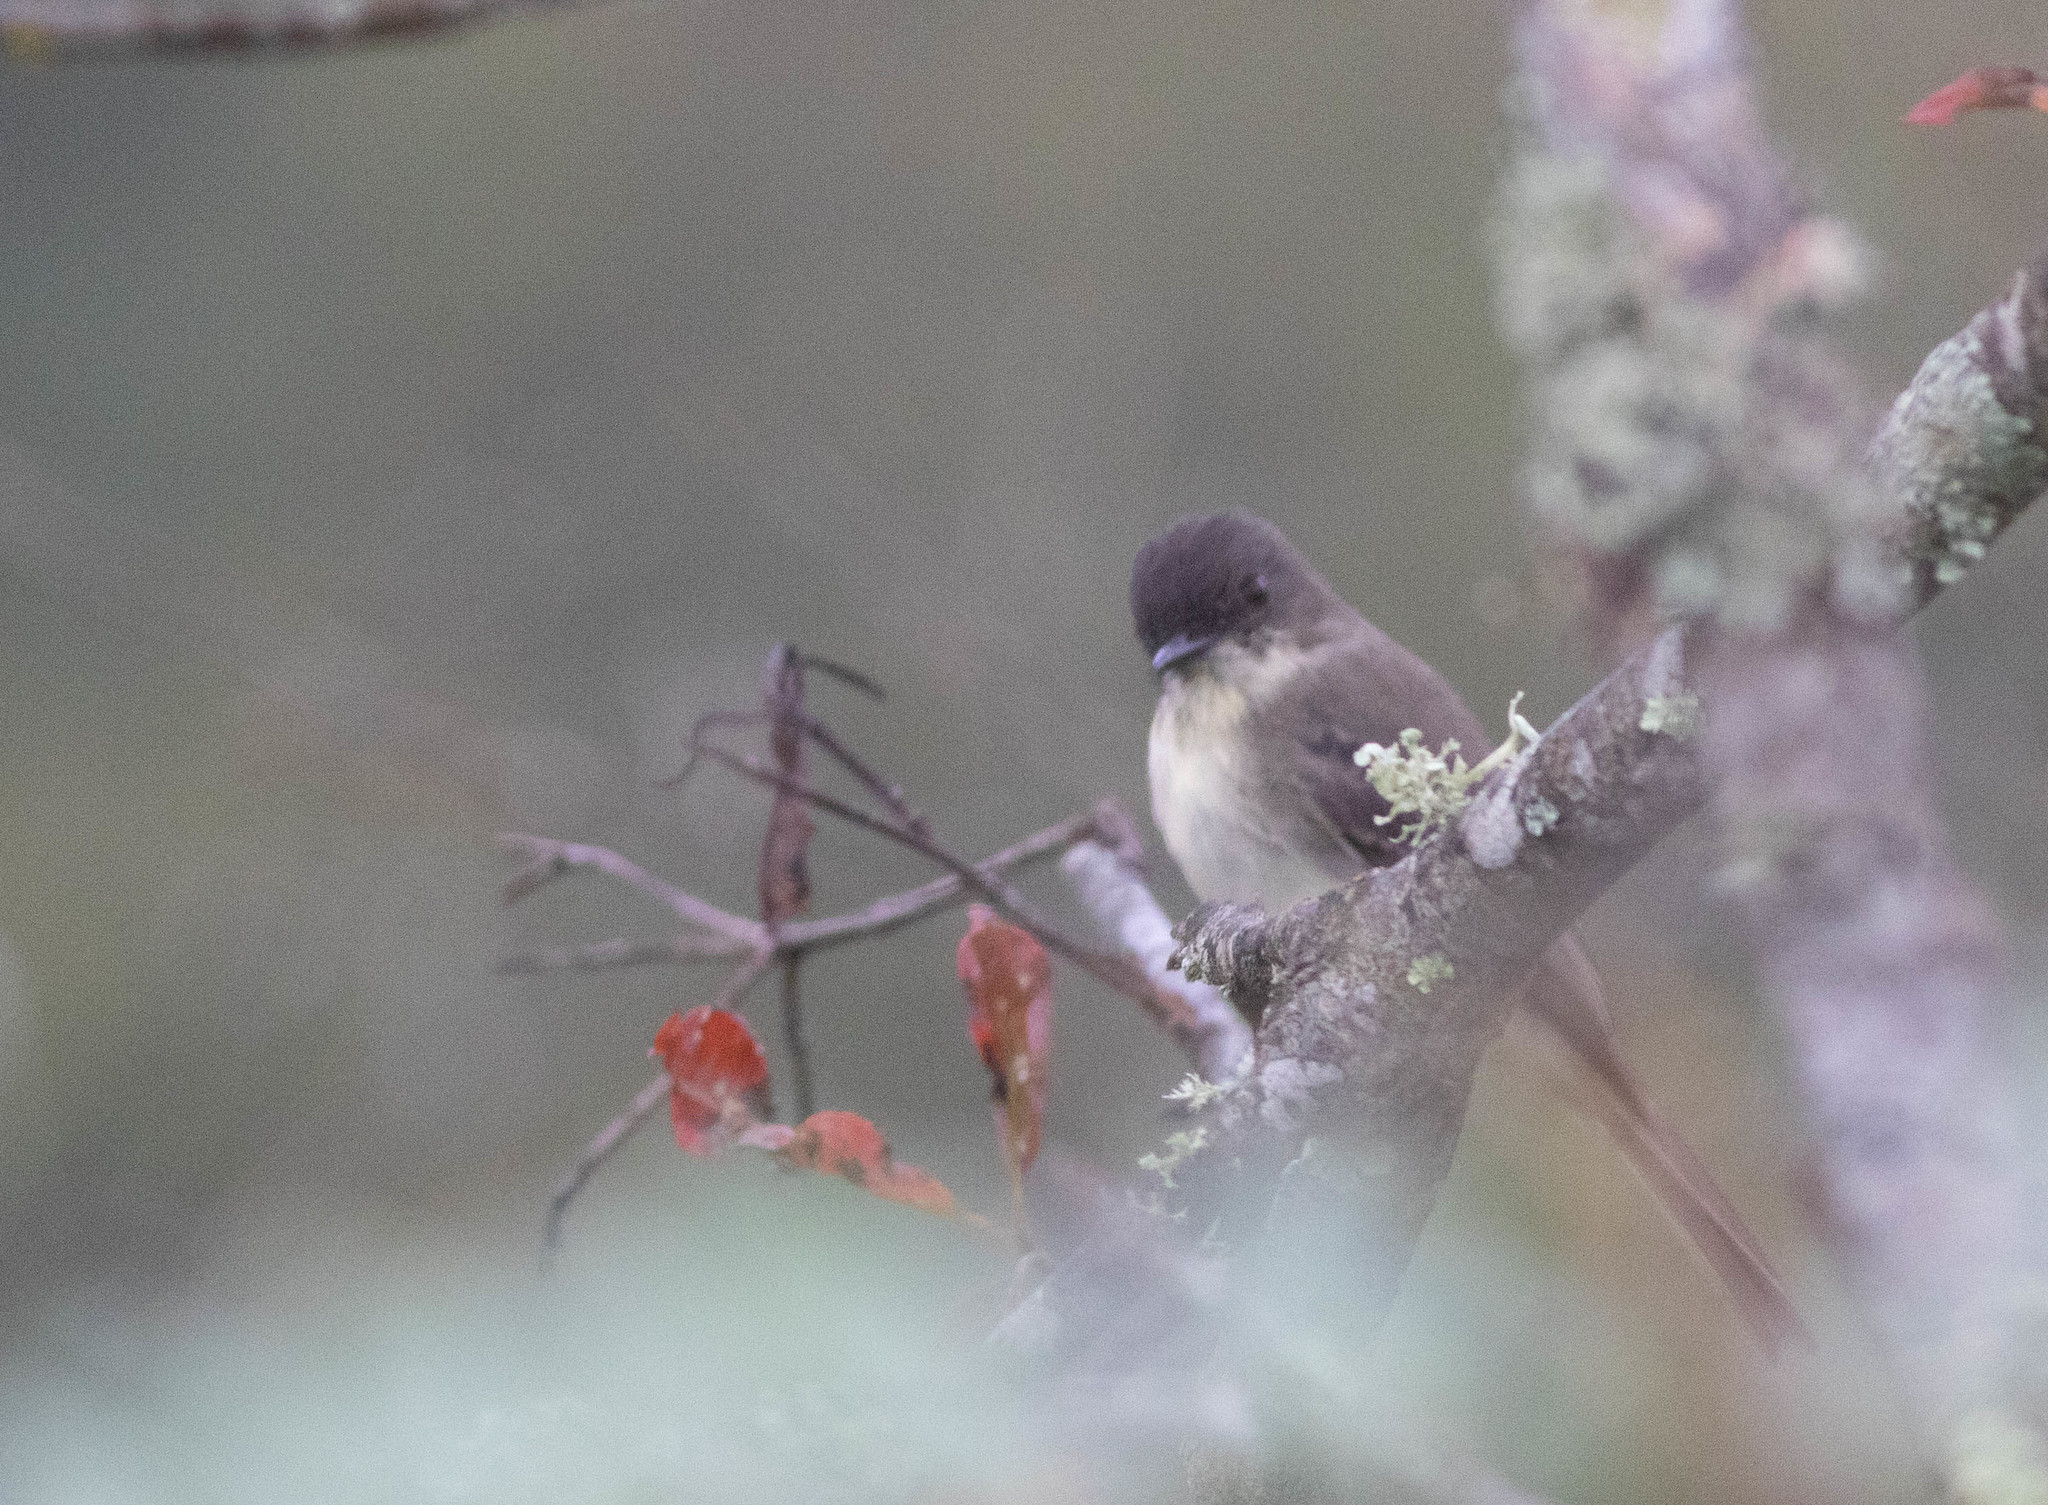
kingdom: Animalia
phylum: Chordata
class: Aves
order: Passeriformes
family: Tyrannidae
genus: Sayornis
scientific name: Sayornis phoebe
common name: Eastern phoebe
